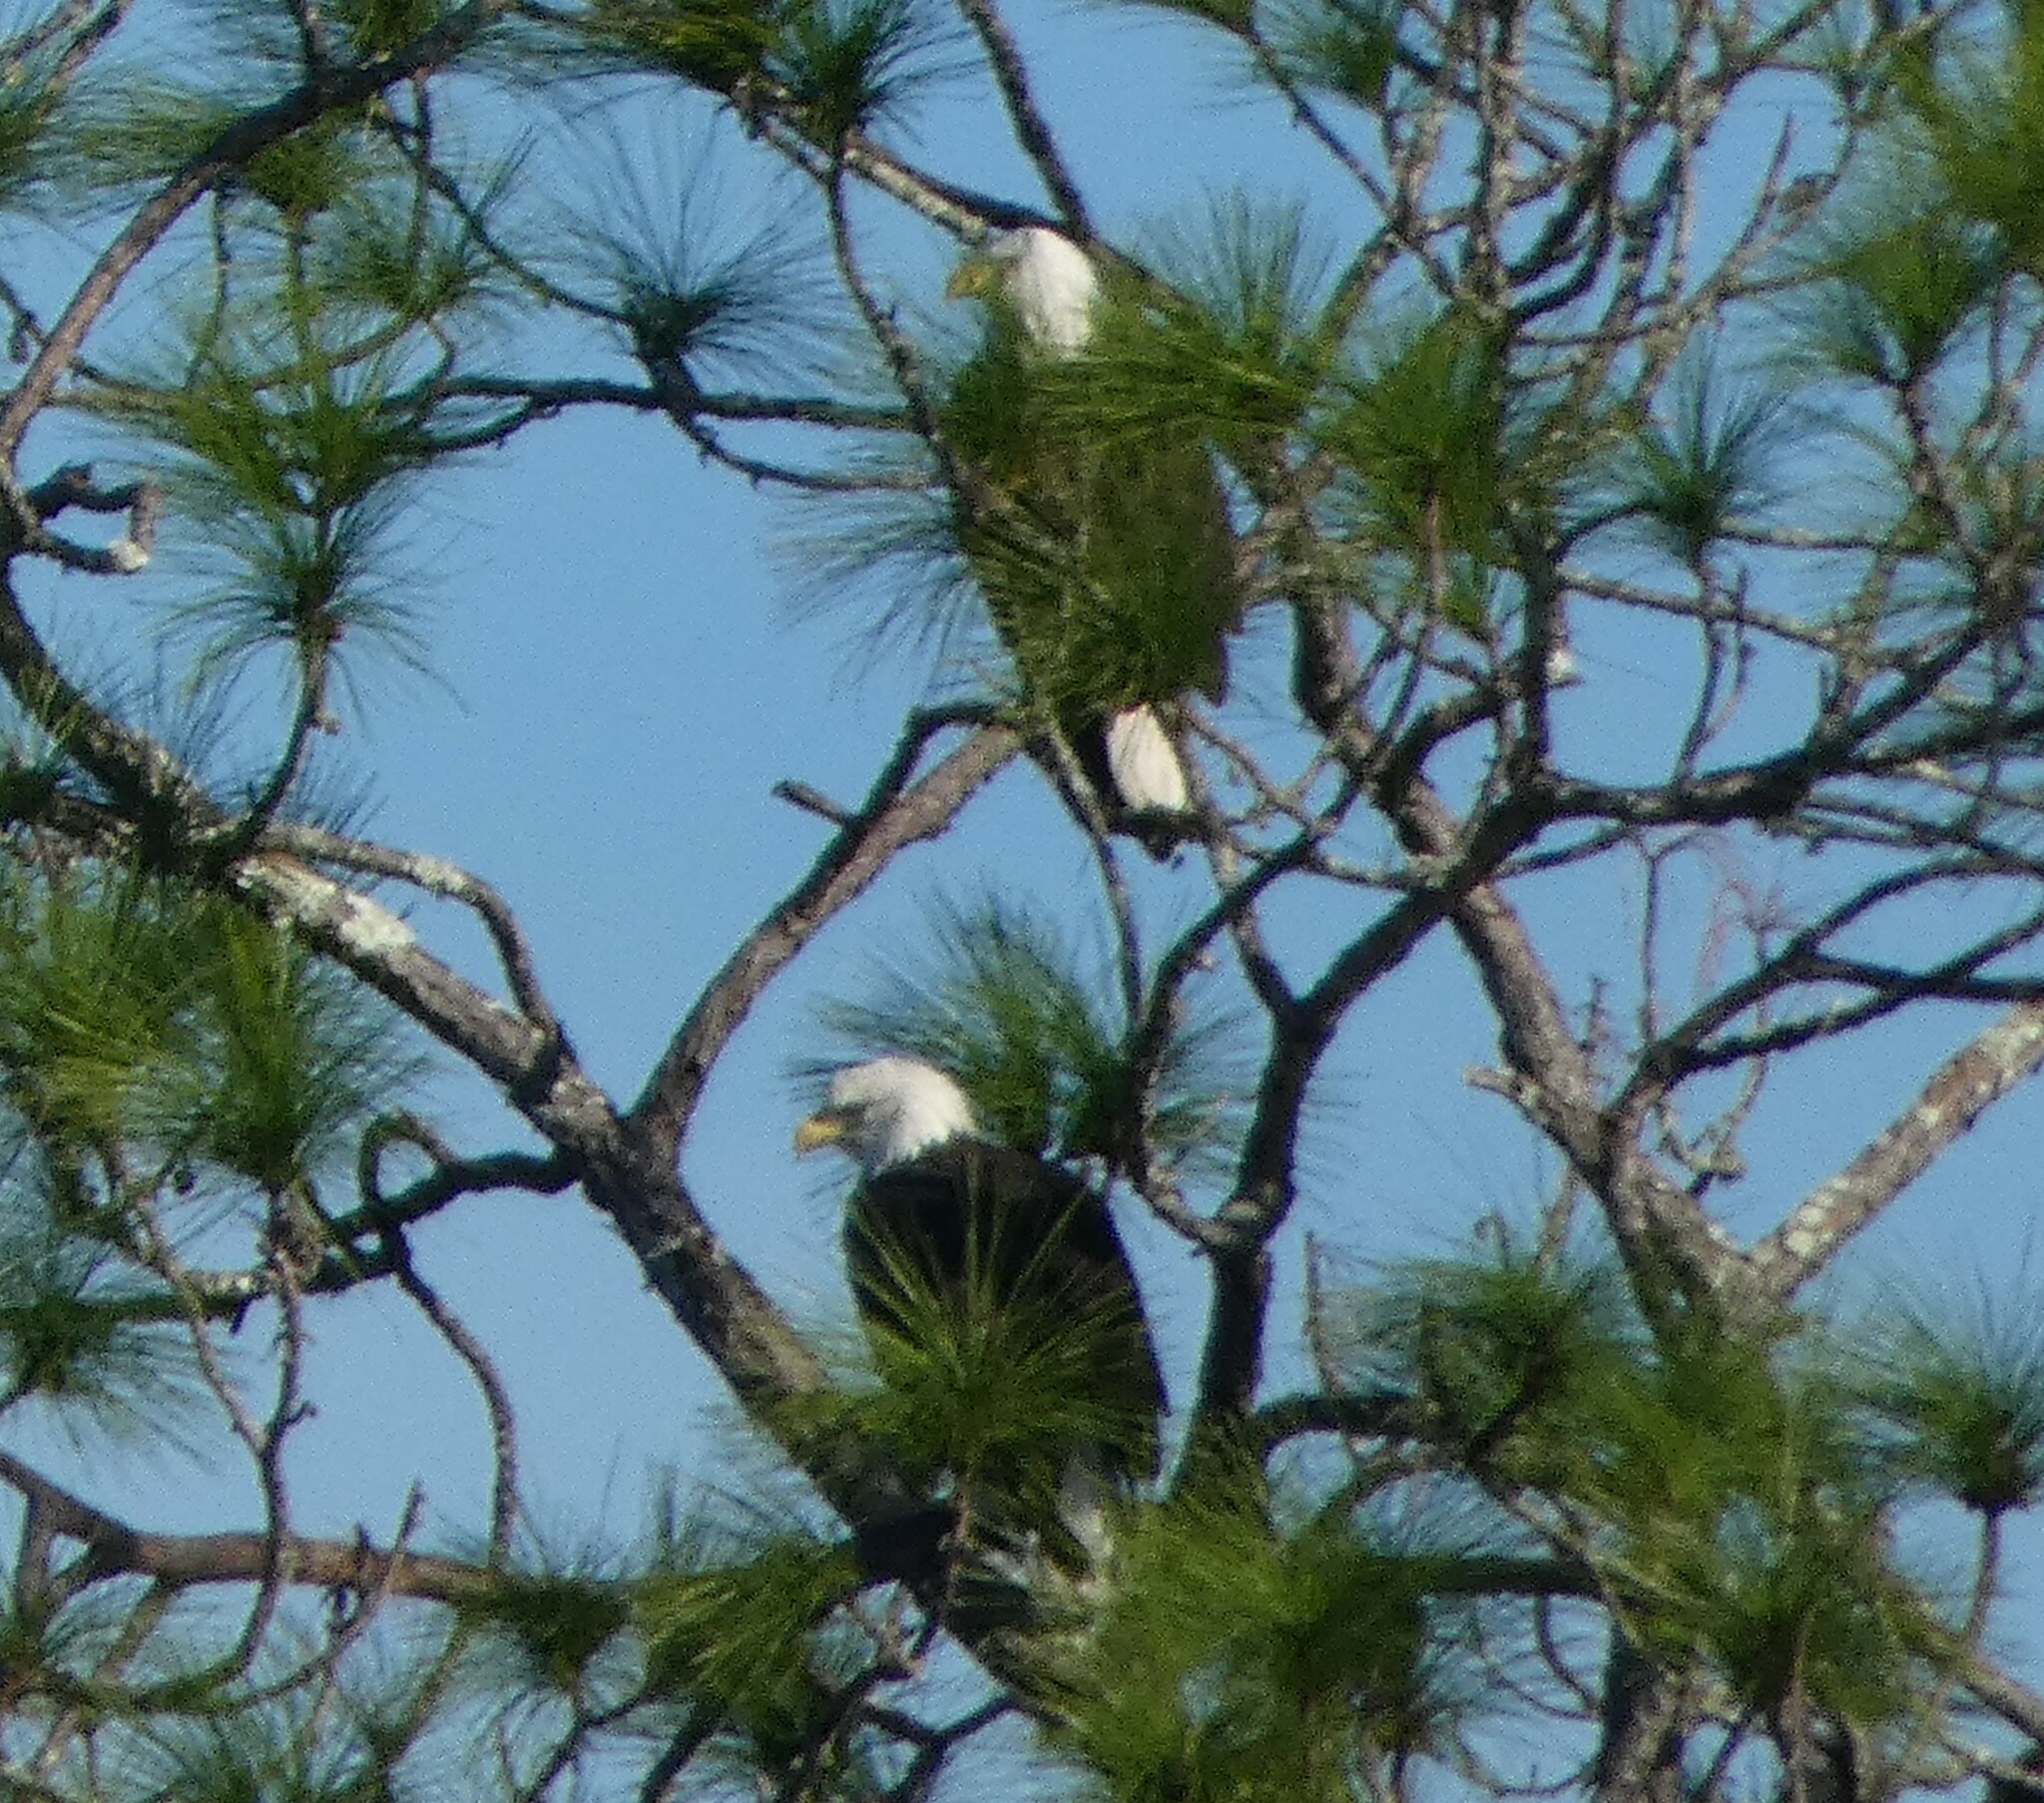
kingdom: Animalia
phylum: Chordata
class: Aves
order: Accipitriformes
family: Accipitridae
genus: Haliaeetus
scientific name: Haliaeetus leucocephalus
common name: Bald eagle
